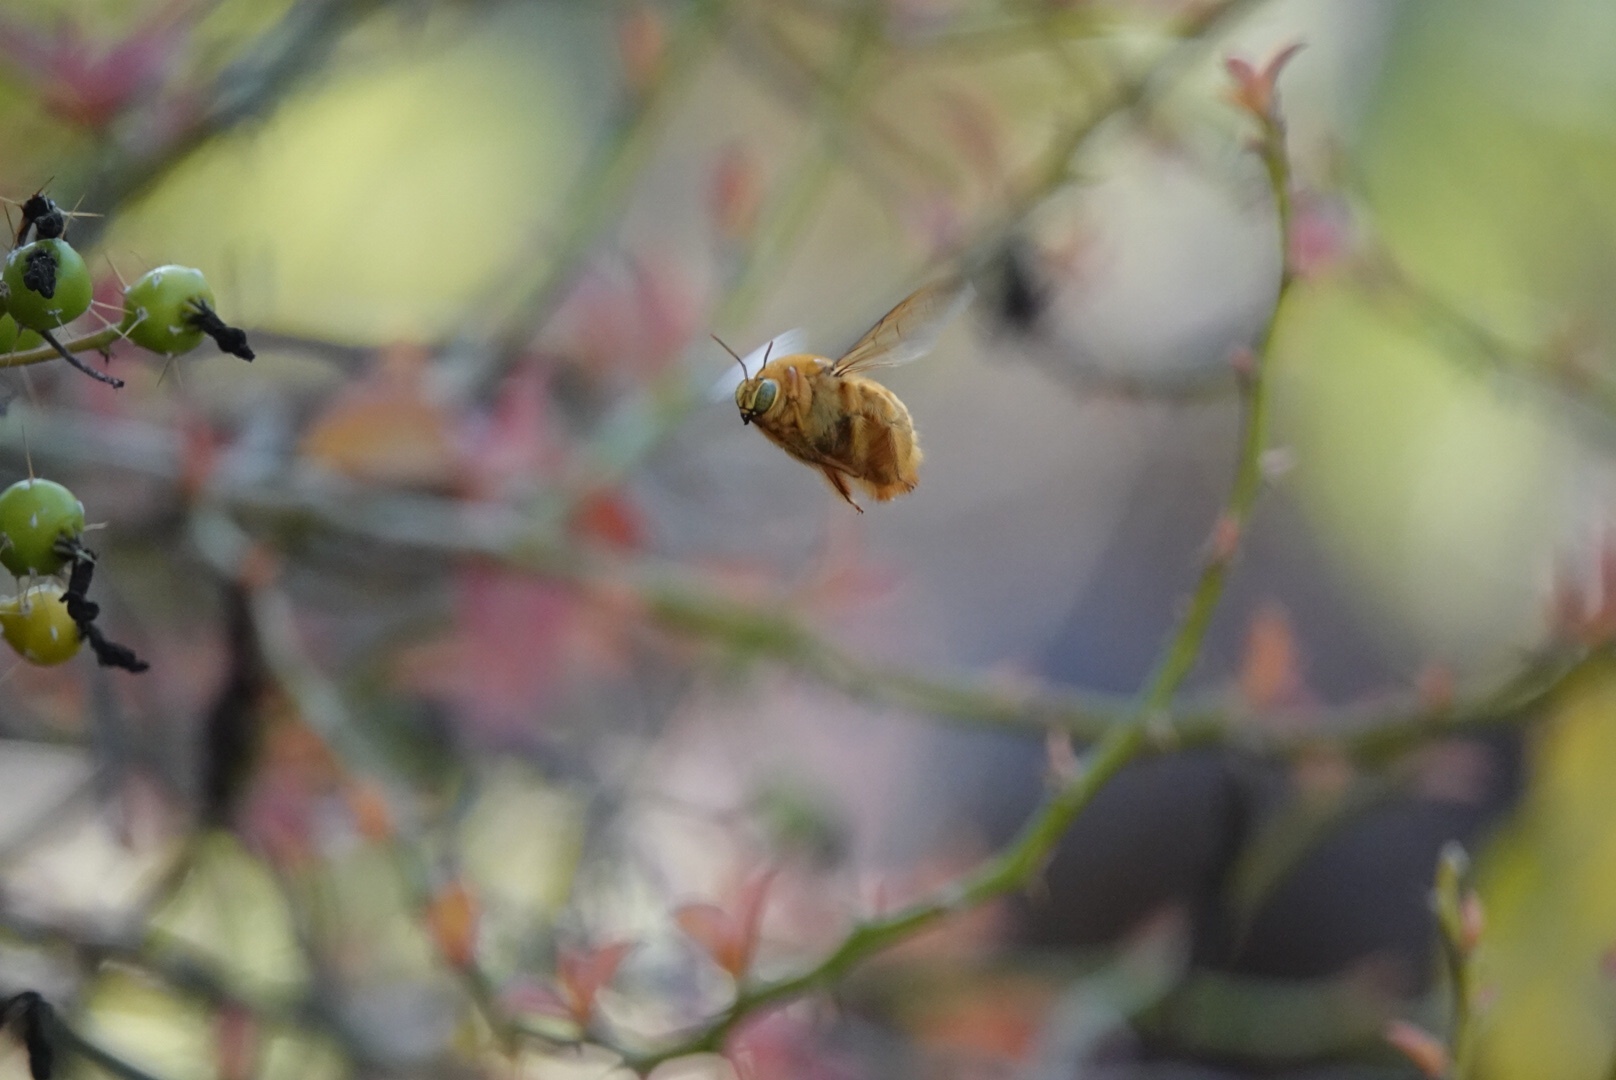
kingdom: Animalia
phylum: Arthropoda
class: Insecta
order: Hymenoptera
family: Apidae
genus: Xylocopa
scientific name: Xylocopa sonorina
